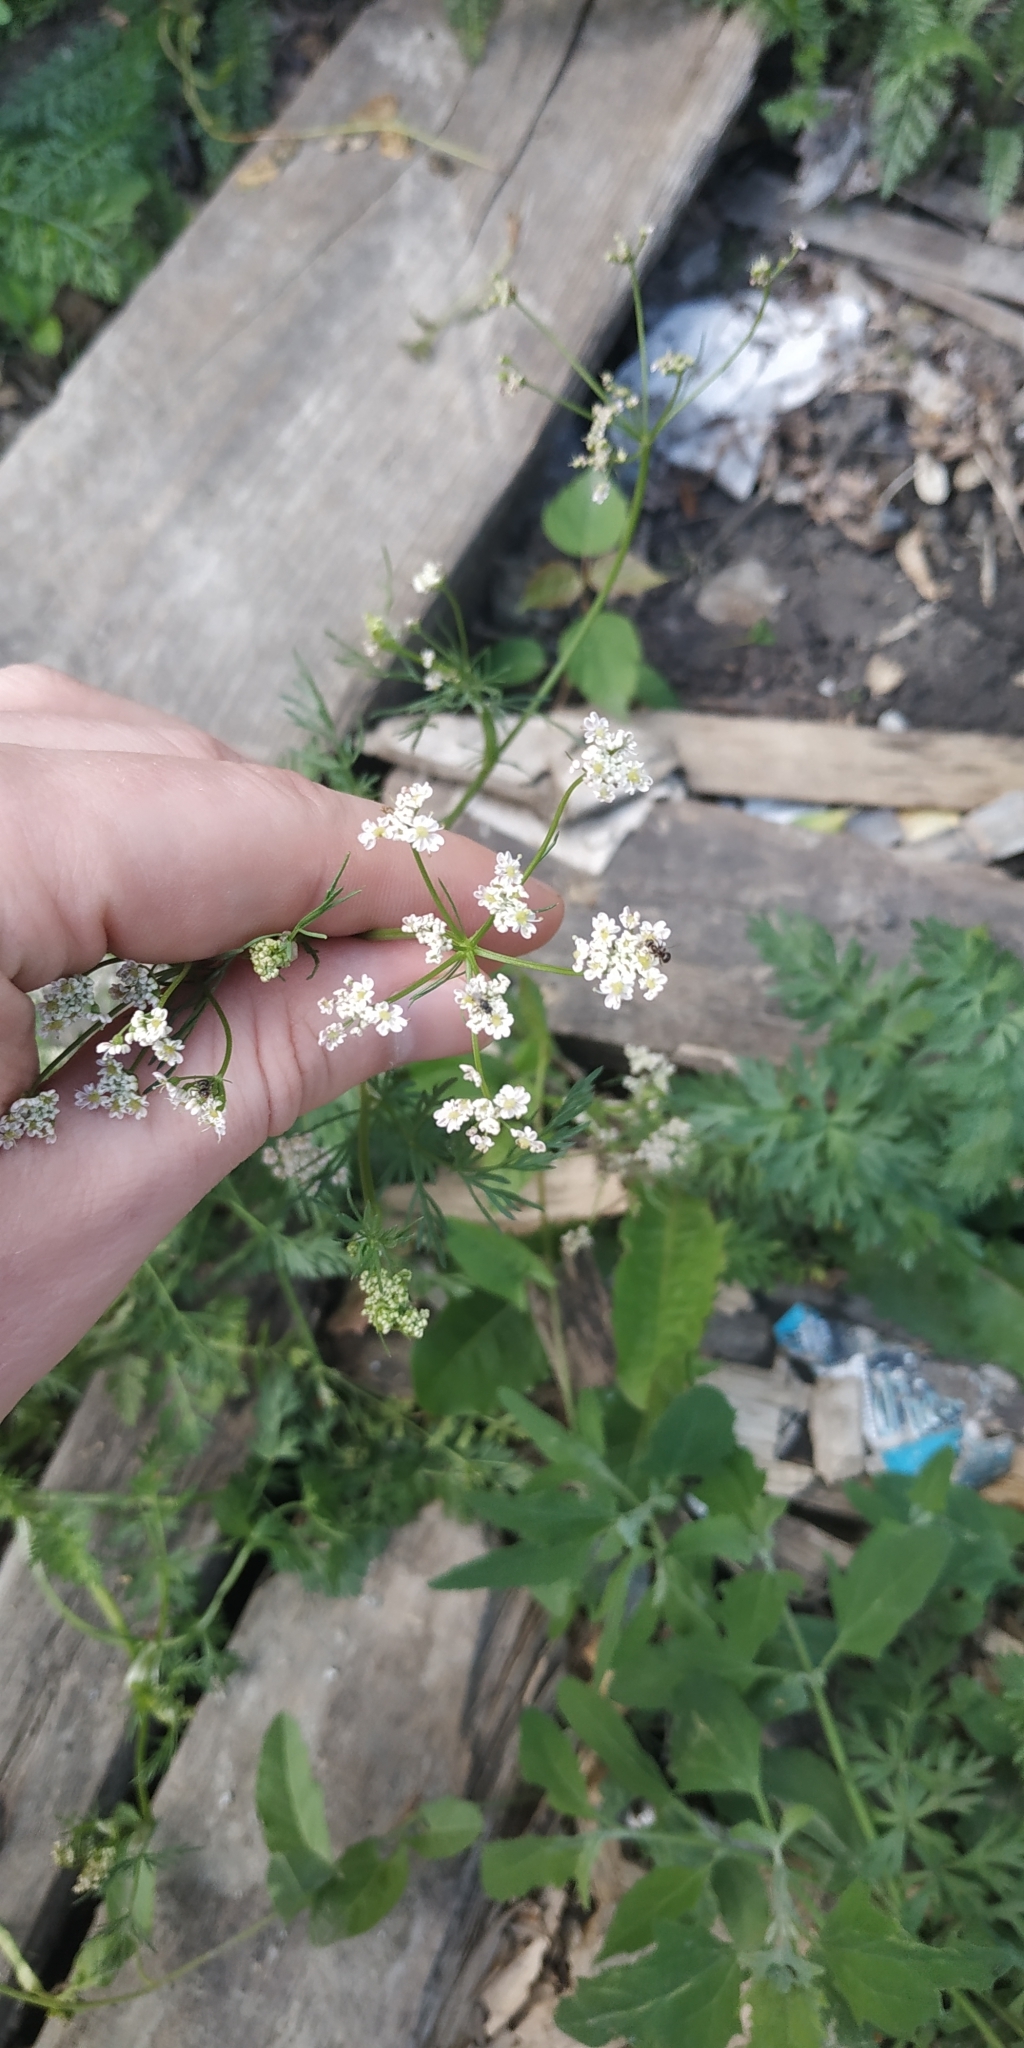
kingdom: Plantae
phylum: Tracheophyta
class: Magnoliopsida
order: Apiales
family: Apiaceae
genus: Carum
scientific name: Carum carvi
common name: Caraway
